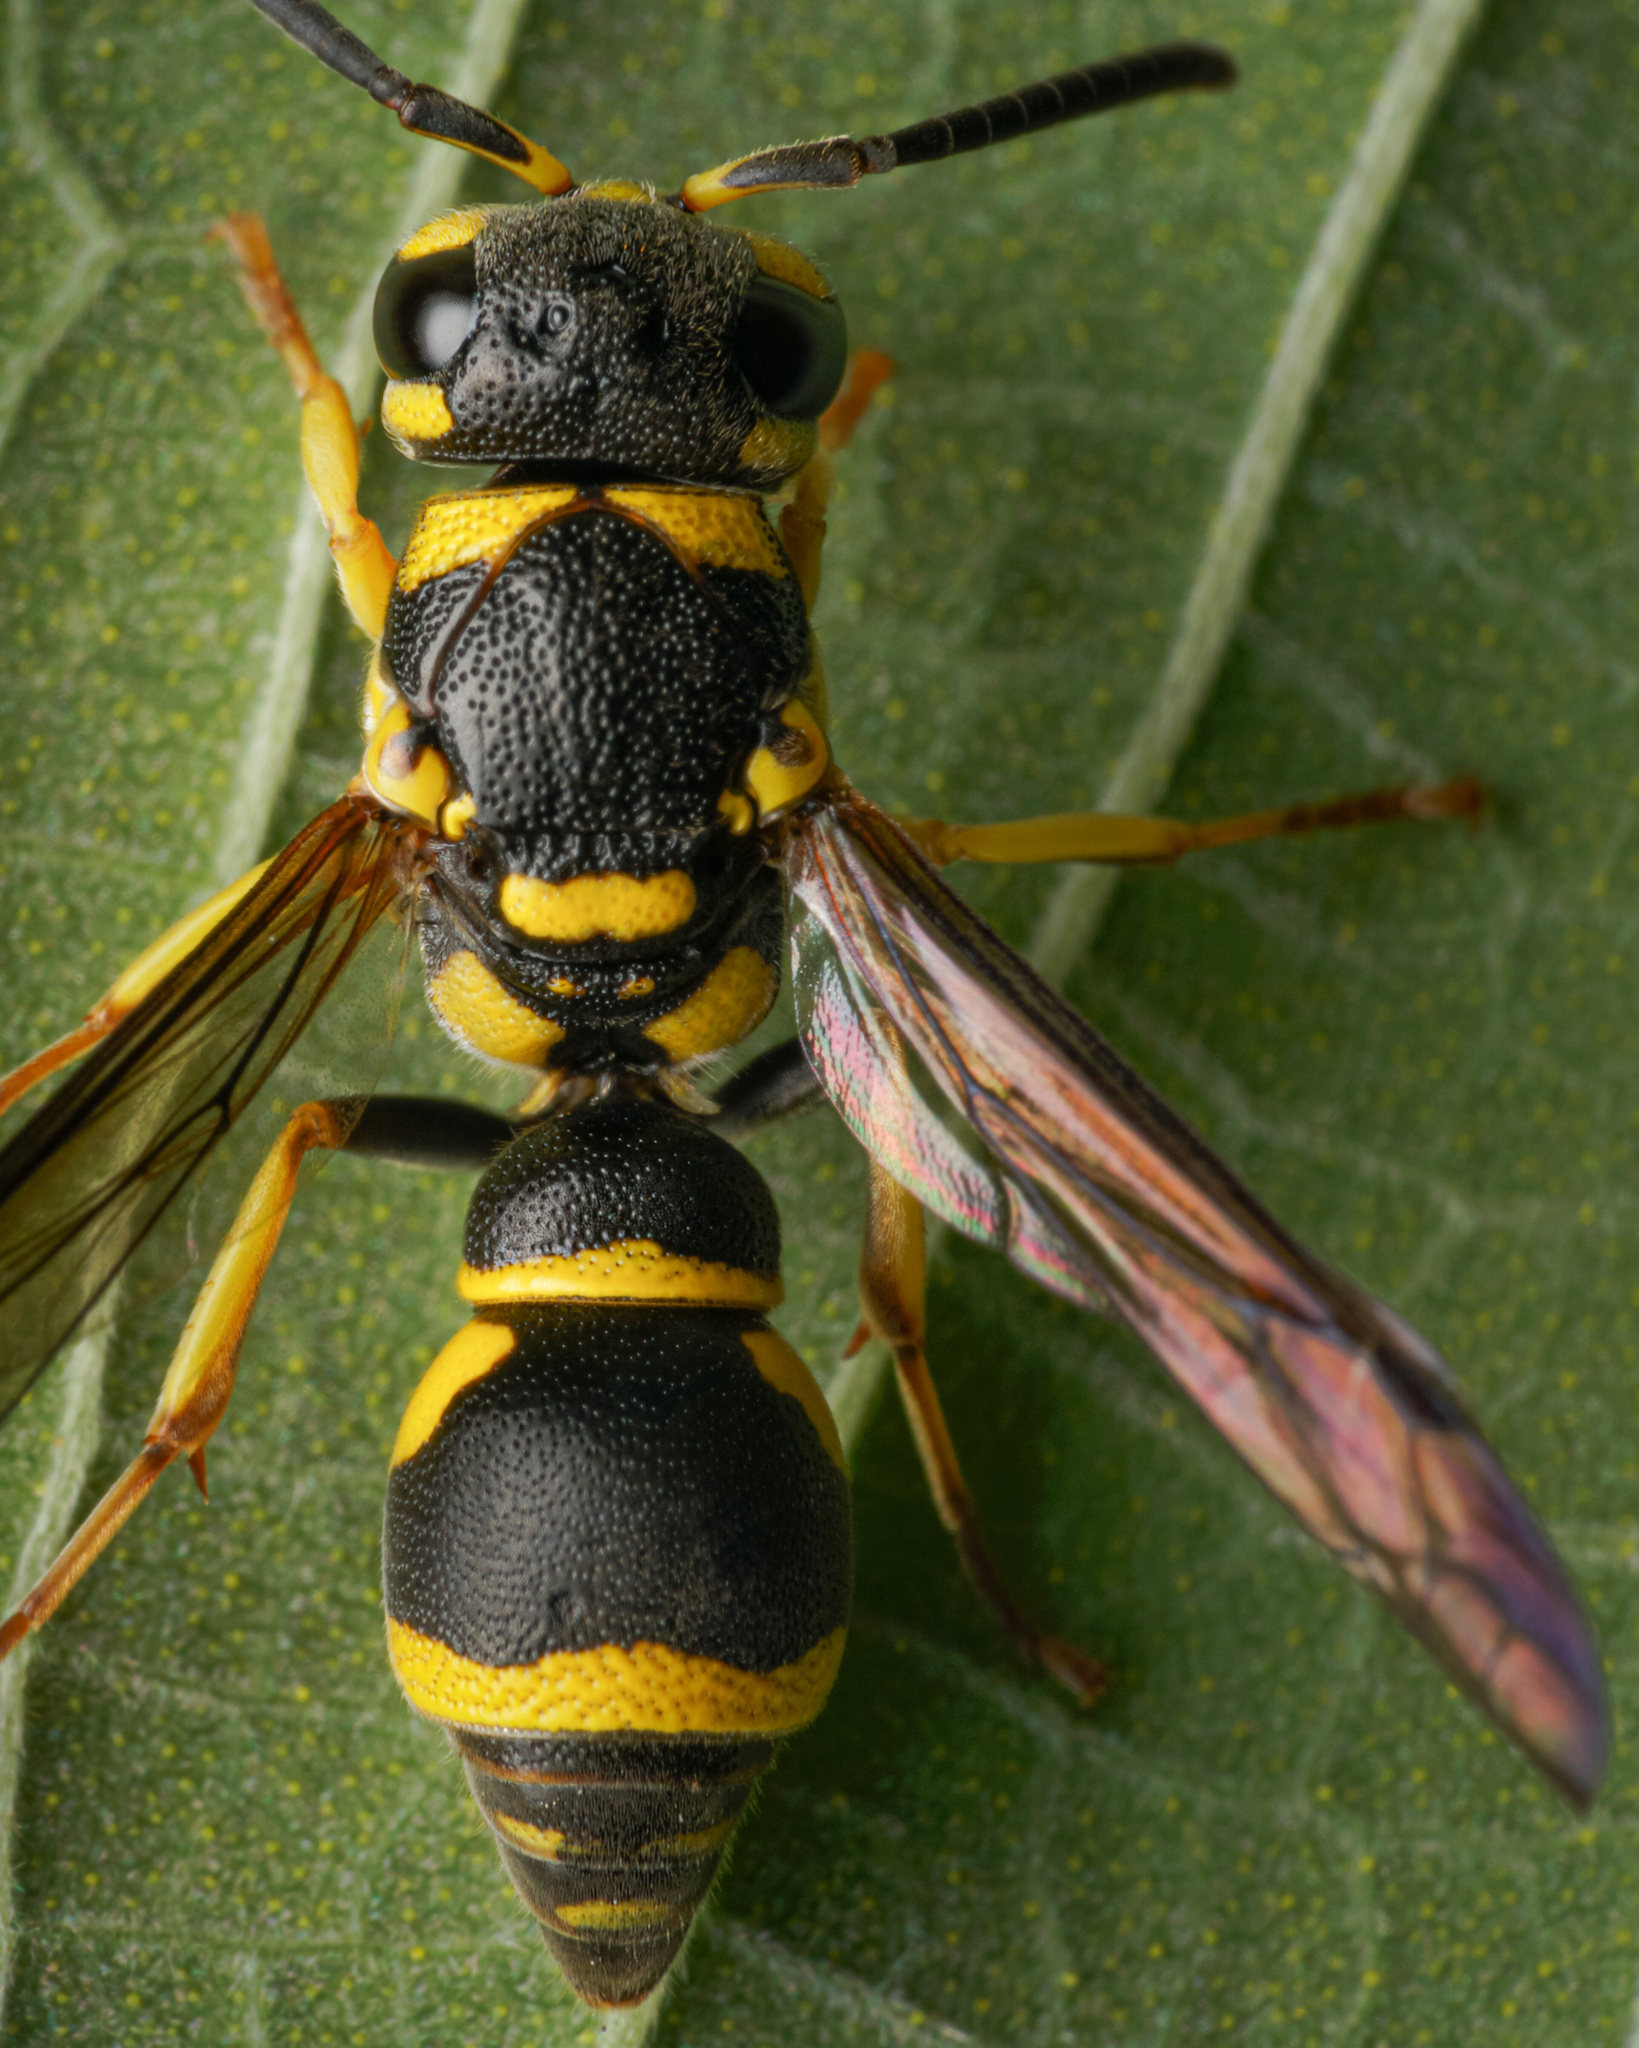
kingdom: Animalia
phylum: Arthropoda
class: Insecta
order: Hymenoptera
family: Eumenidae
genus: Apodynerus
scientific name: Apodynerus flavospinosus
